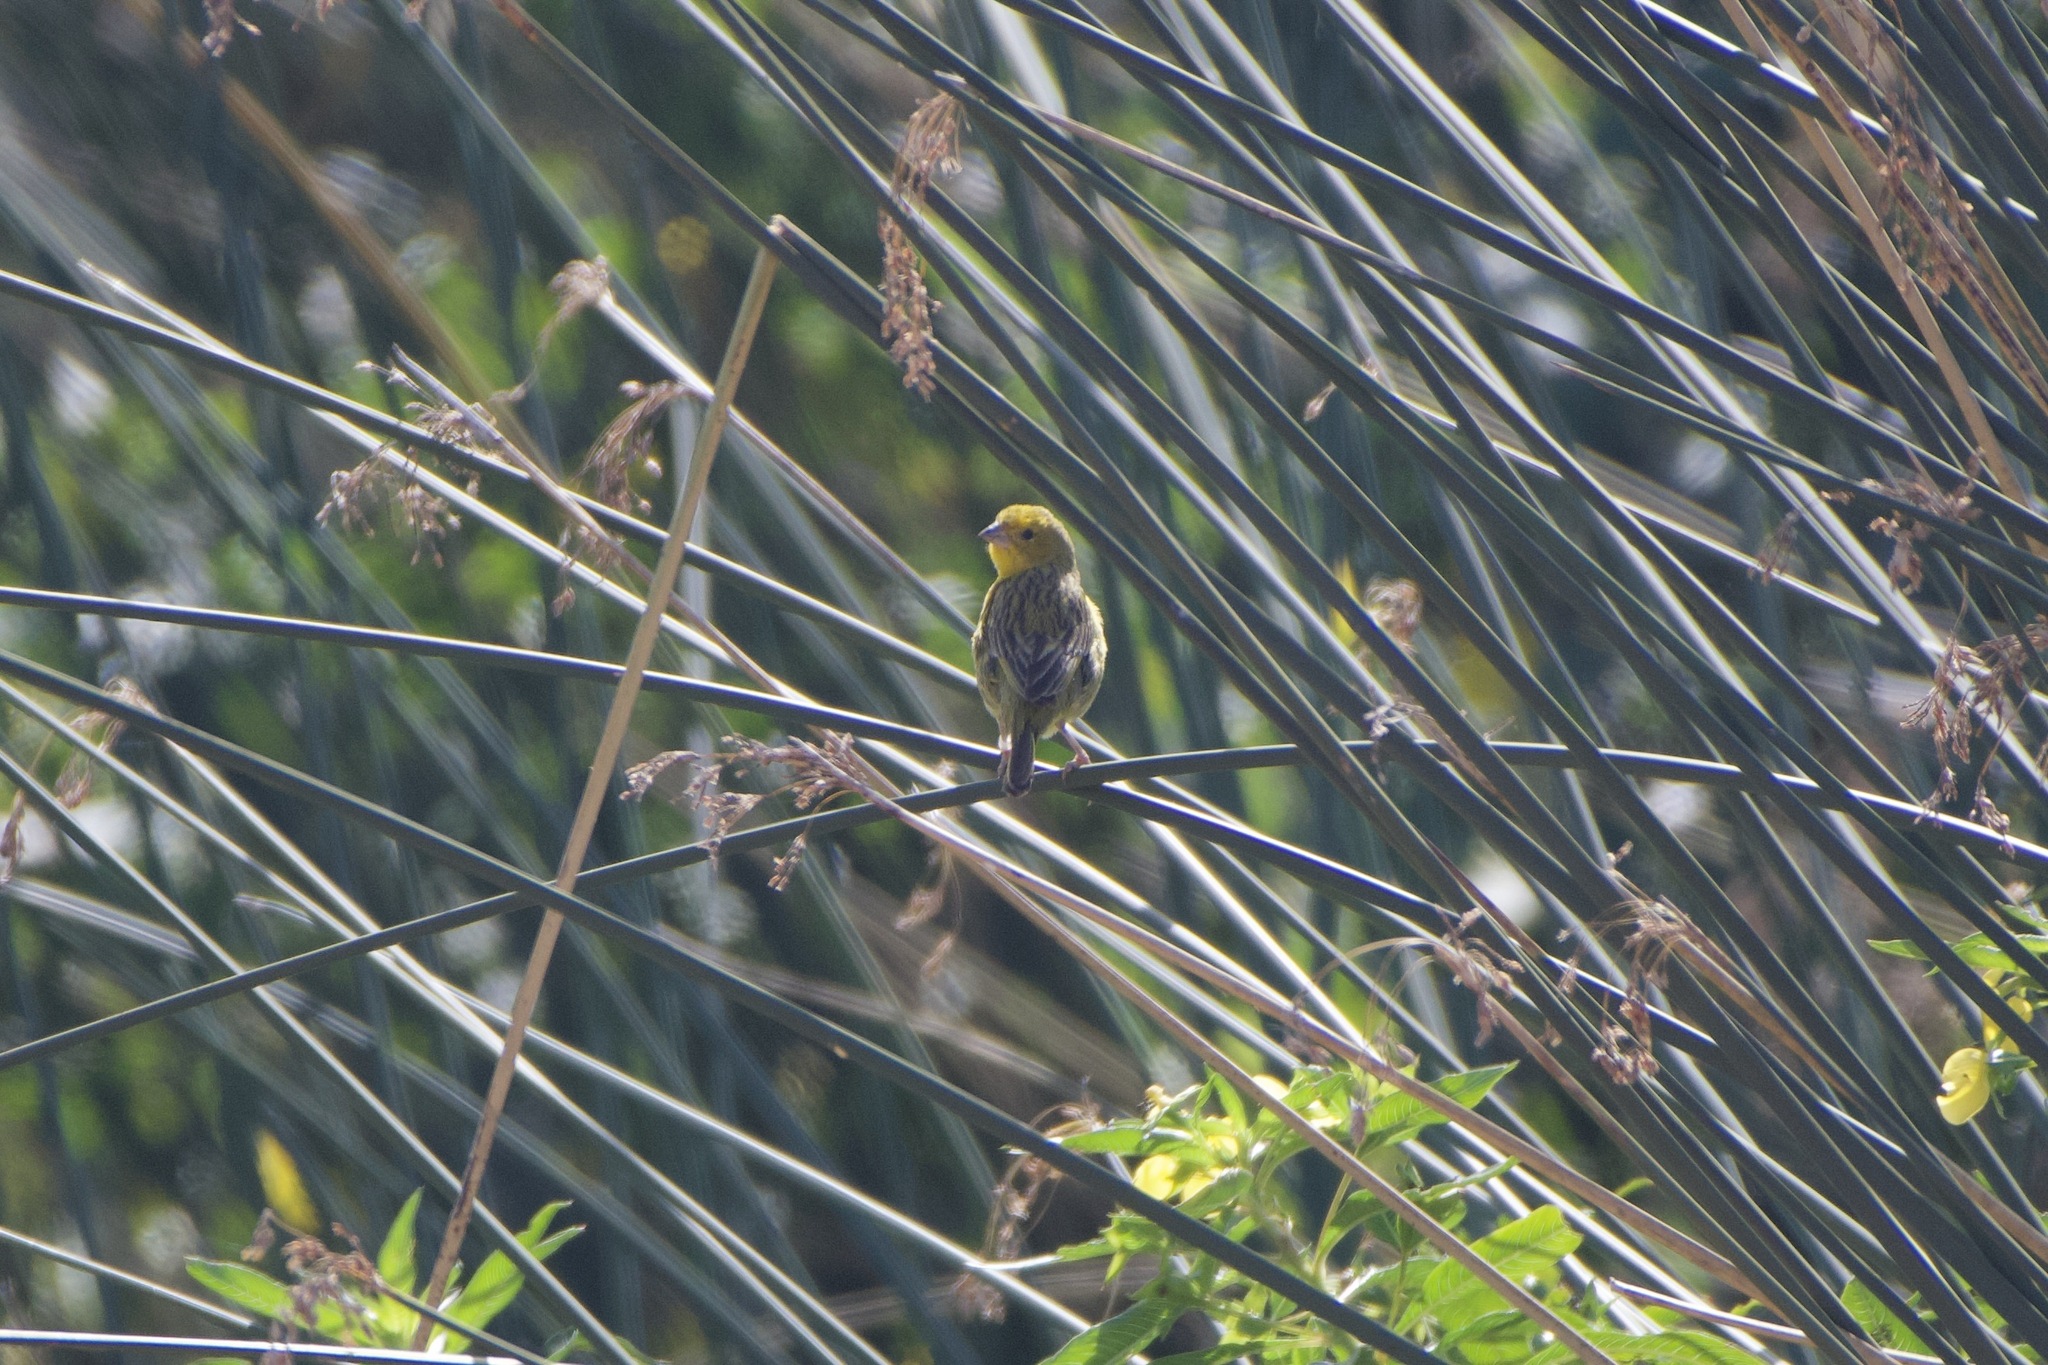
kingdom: Animalia
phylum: Chordata
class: Aves
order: Passeriformes
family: Thraupidae
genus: Sicalis
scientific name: Sicalis flaveola
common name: Saffron finch
